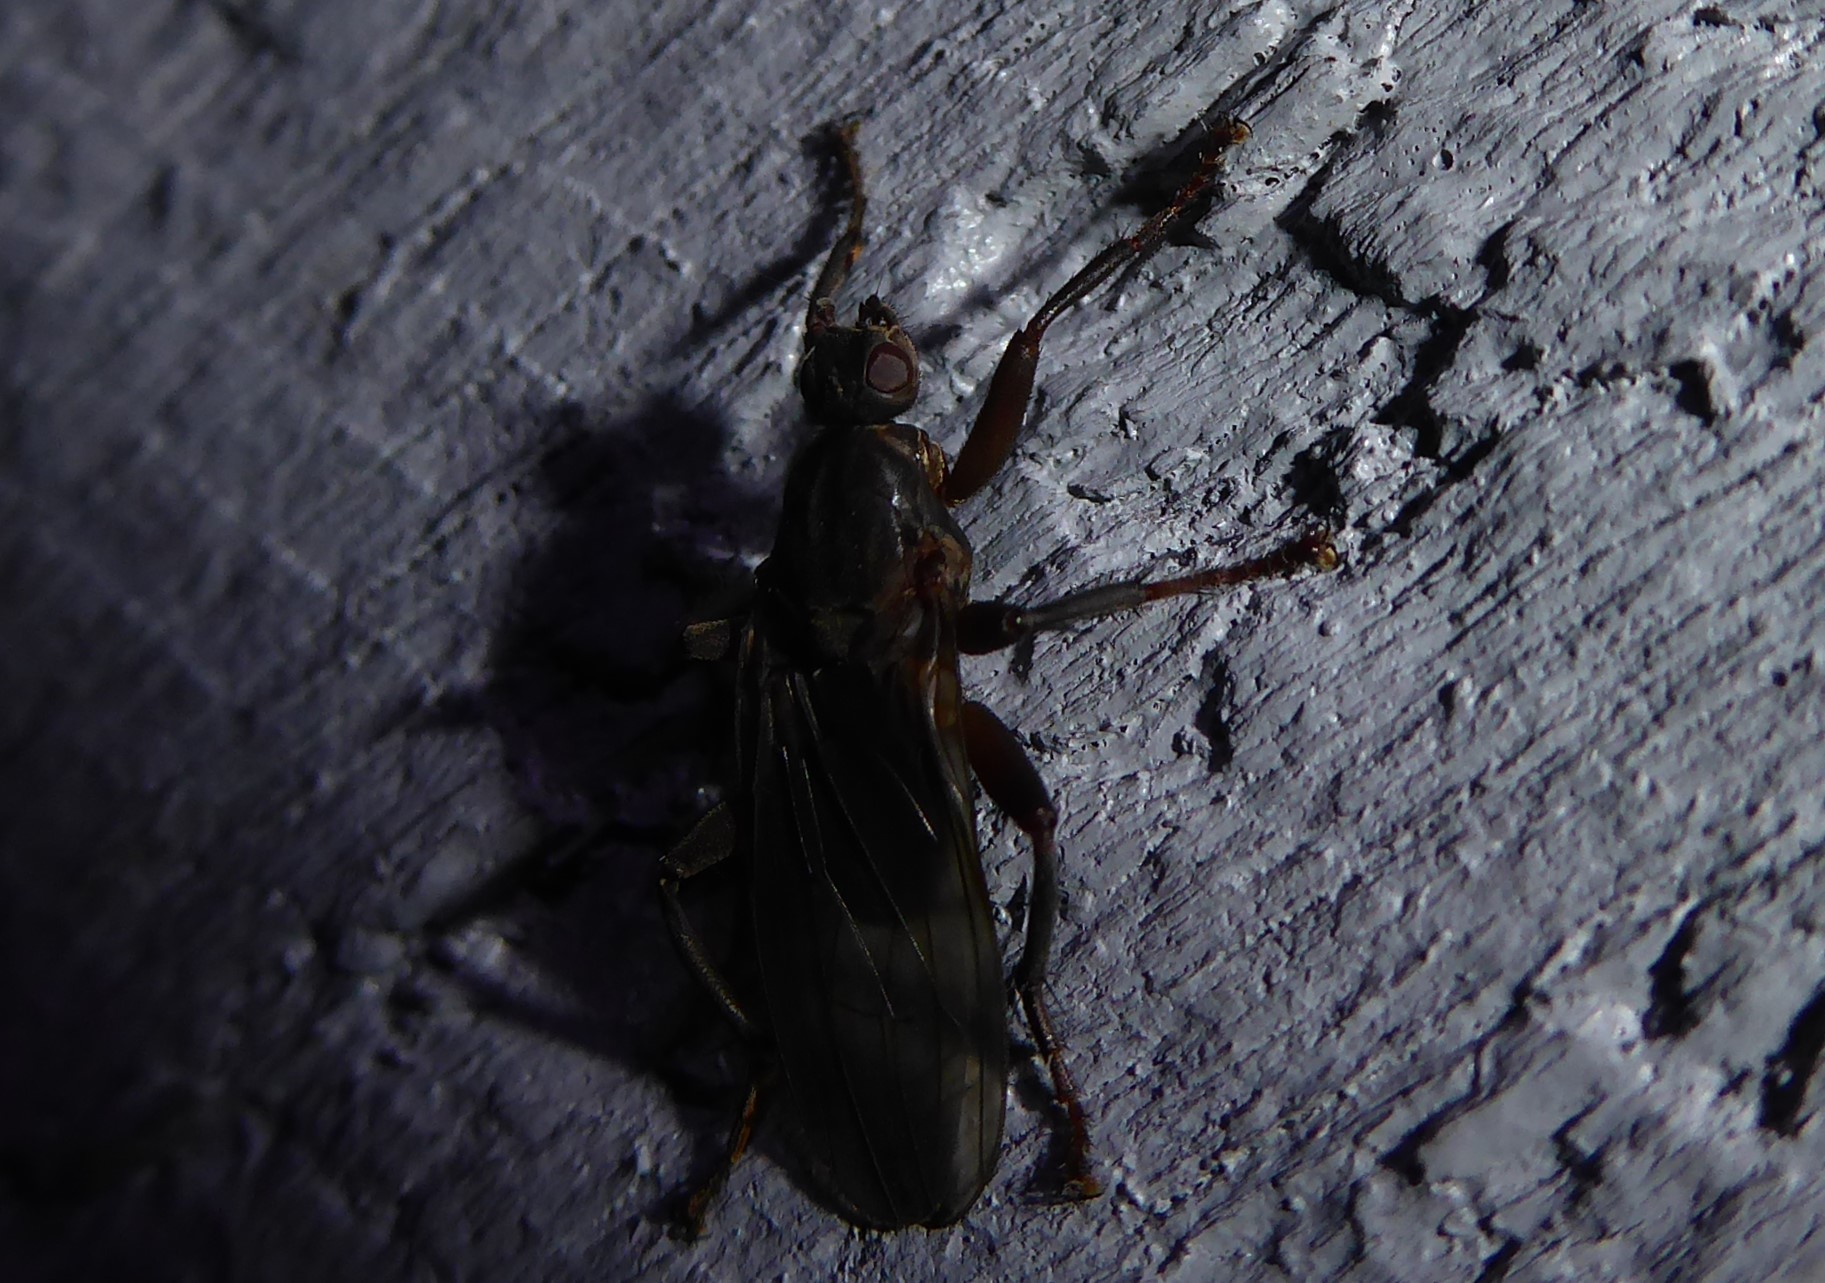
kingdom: Animalia
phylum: Arthropoda
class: Insecta
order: Diptera
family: Coelopidae
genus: Baeopterus
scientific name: Baeopterus philpotti
